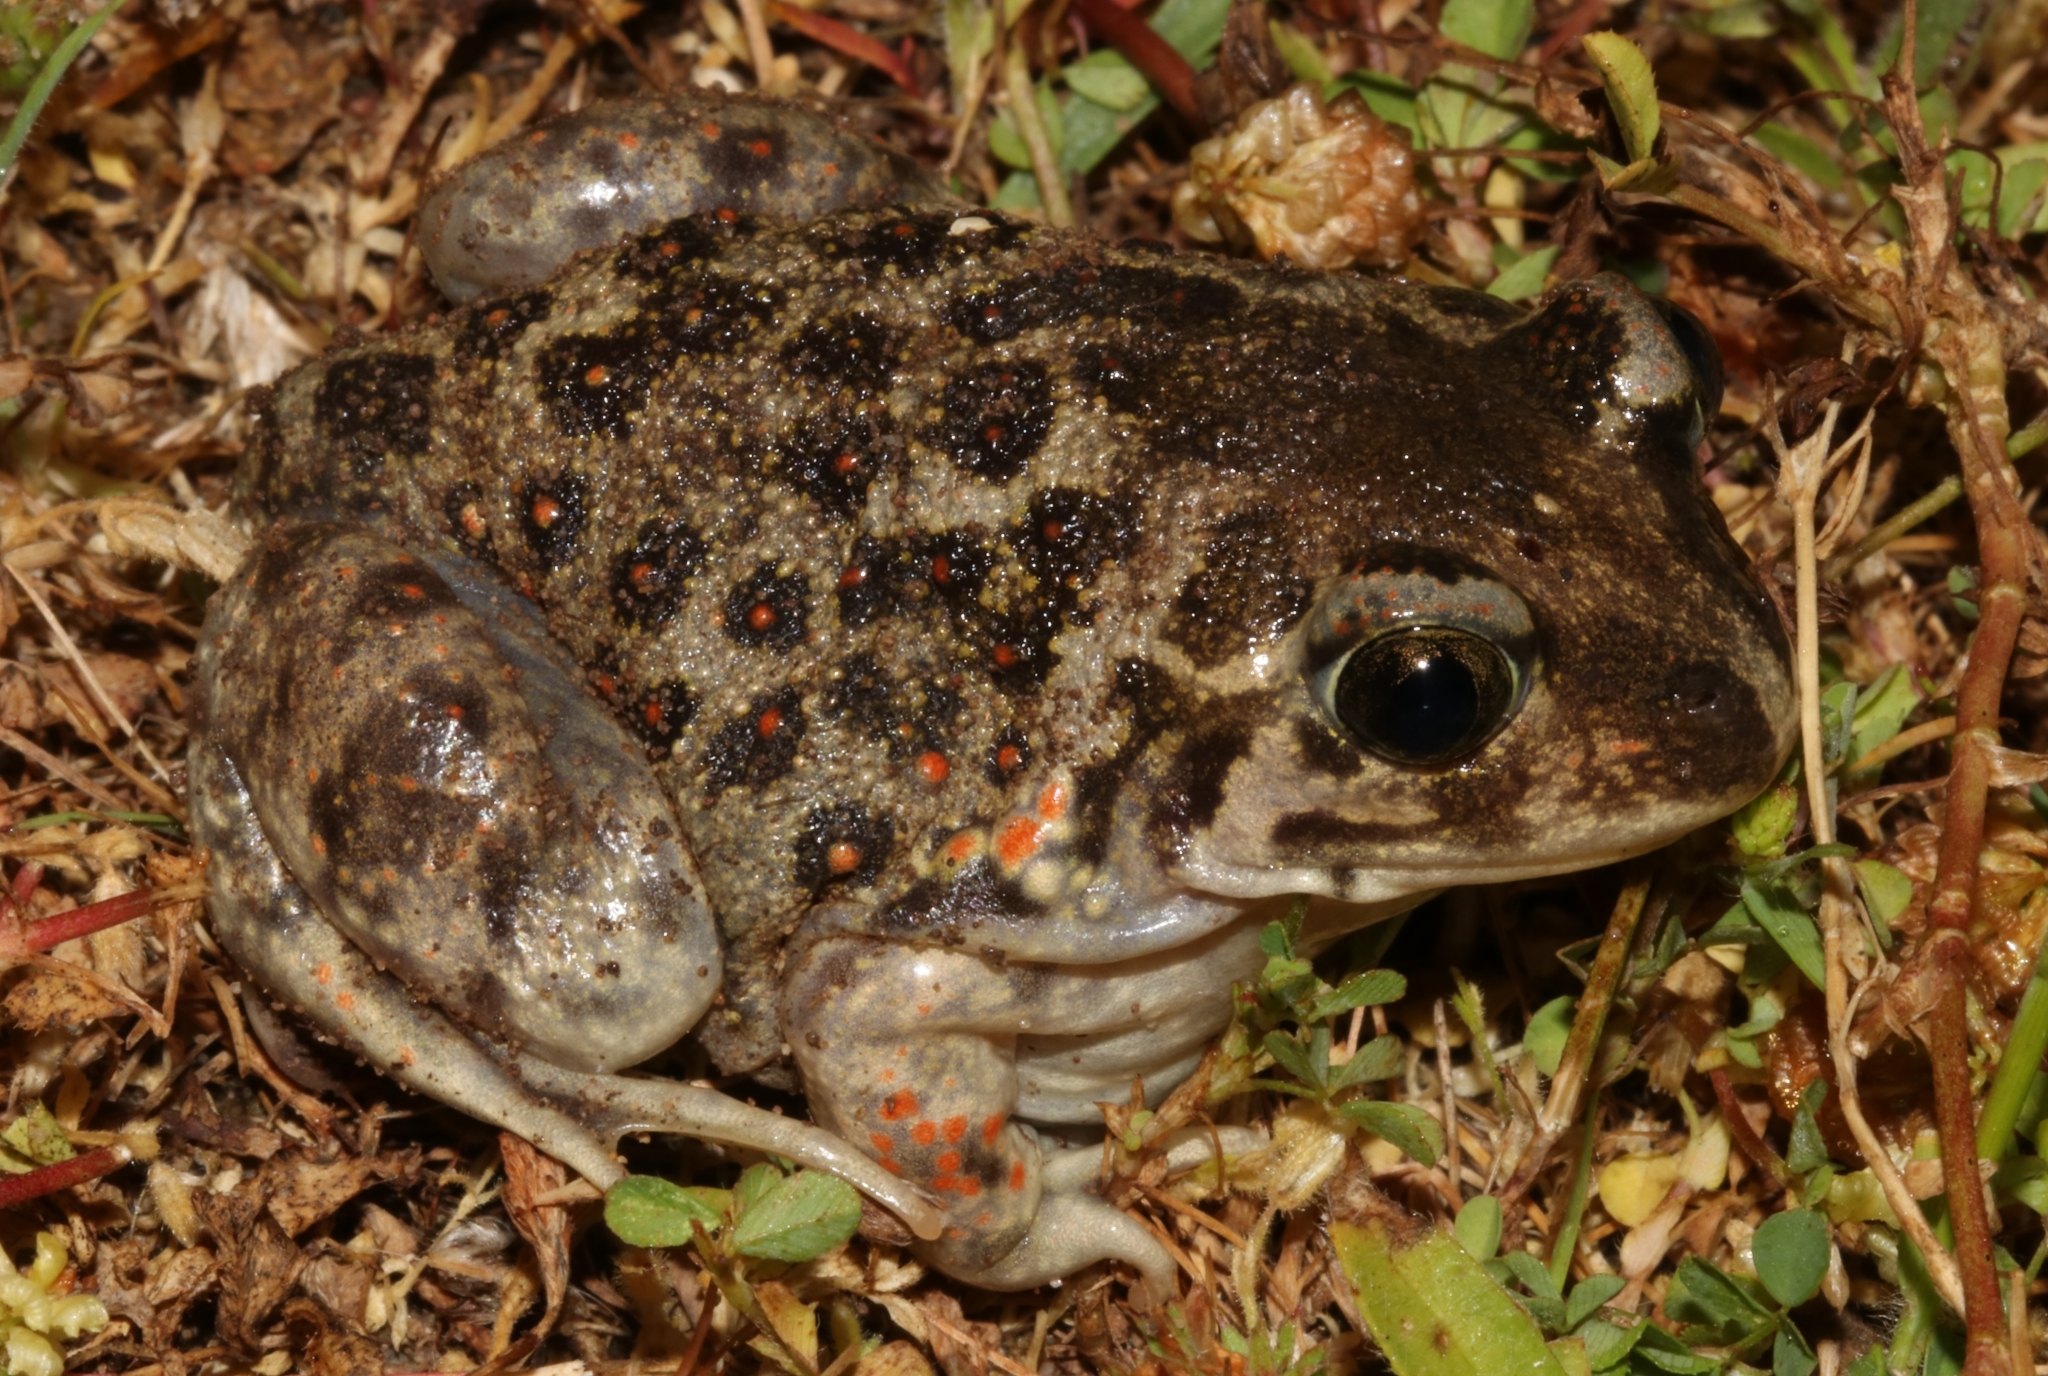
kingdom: Animalia
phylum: Chordata
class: Amphibia
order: Anura
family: Pelobatidae
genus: Pelobates
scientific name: Pelobates balcanicus
